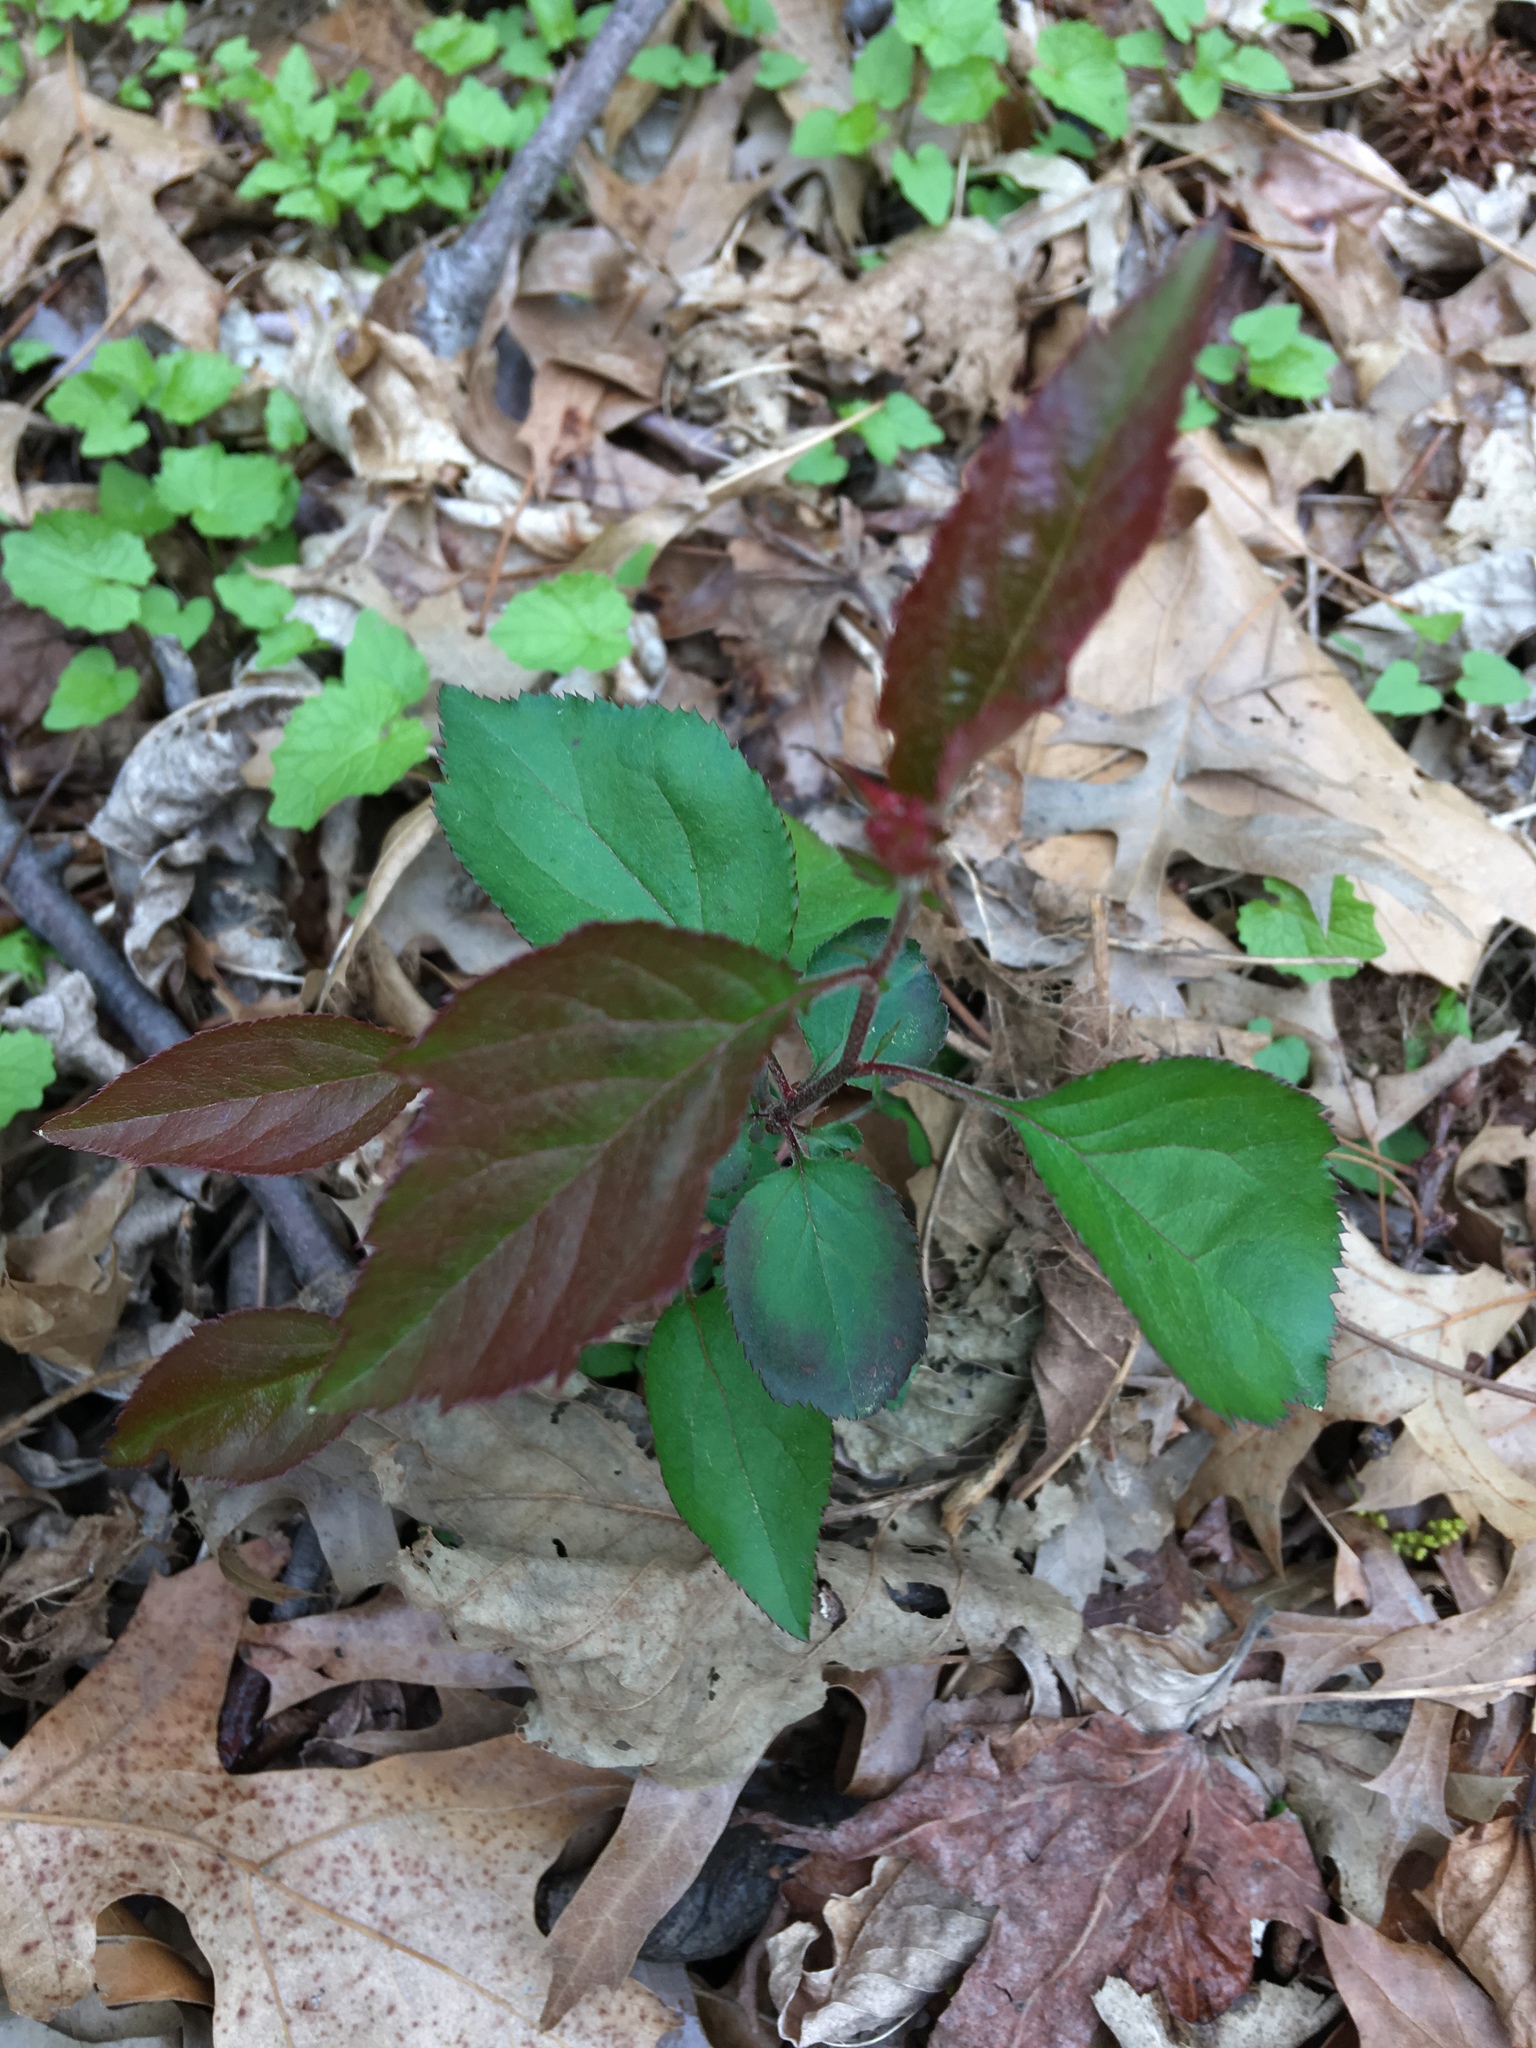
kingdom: Plantae
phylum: Tracheophyta
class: Magnoliopsida
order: Rosales
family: Rosaceae
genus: Malus
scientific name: Malus hupehensis
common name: Chinese crab apple
